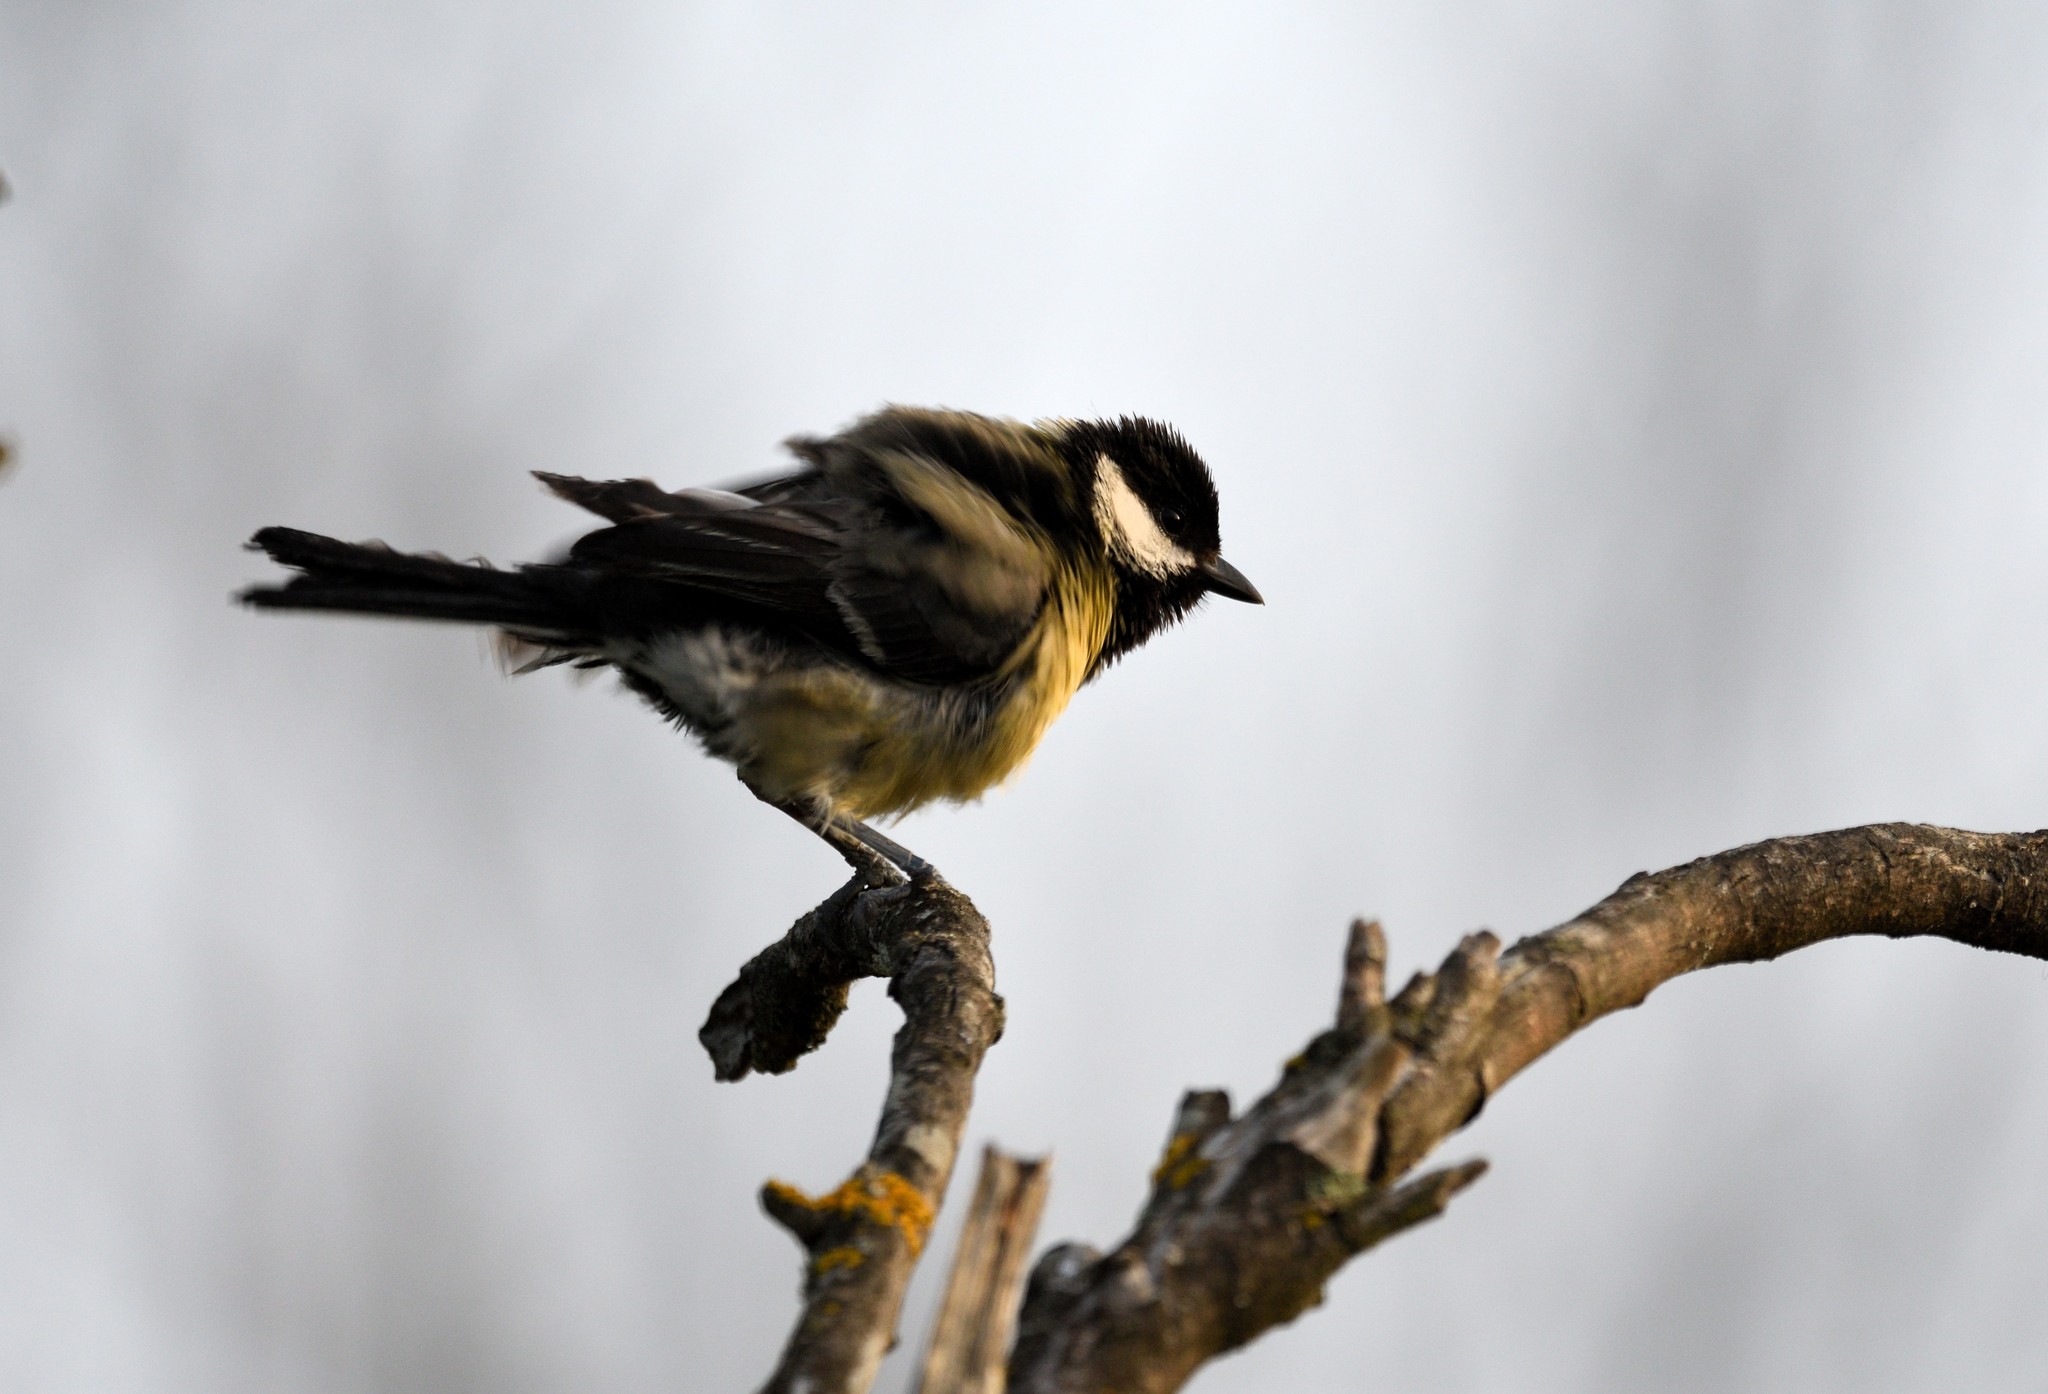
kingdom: Animalia
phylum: Chordata
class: Aves
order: Passeriformes
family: Paridae
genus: Parus
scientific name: Parus major
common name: Great tit
